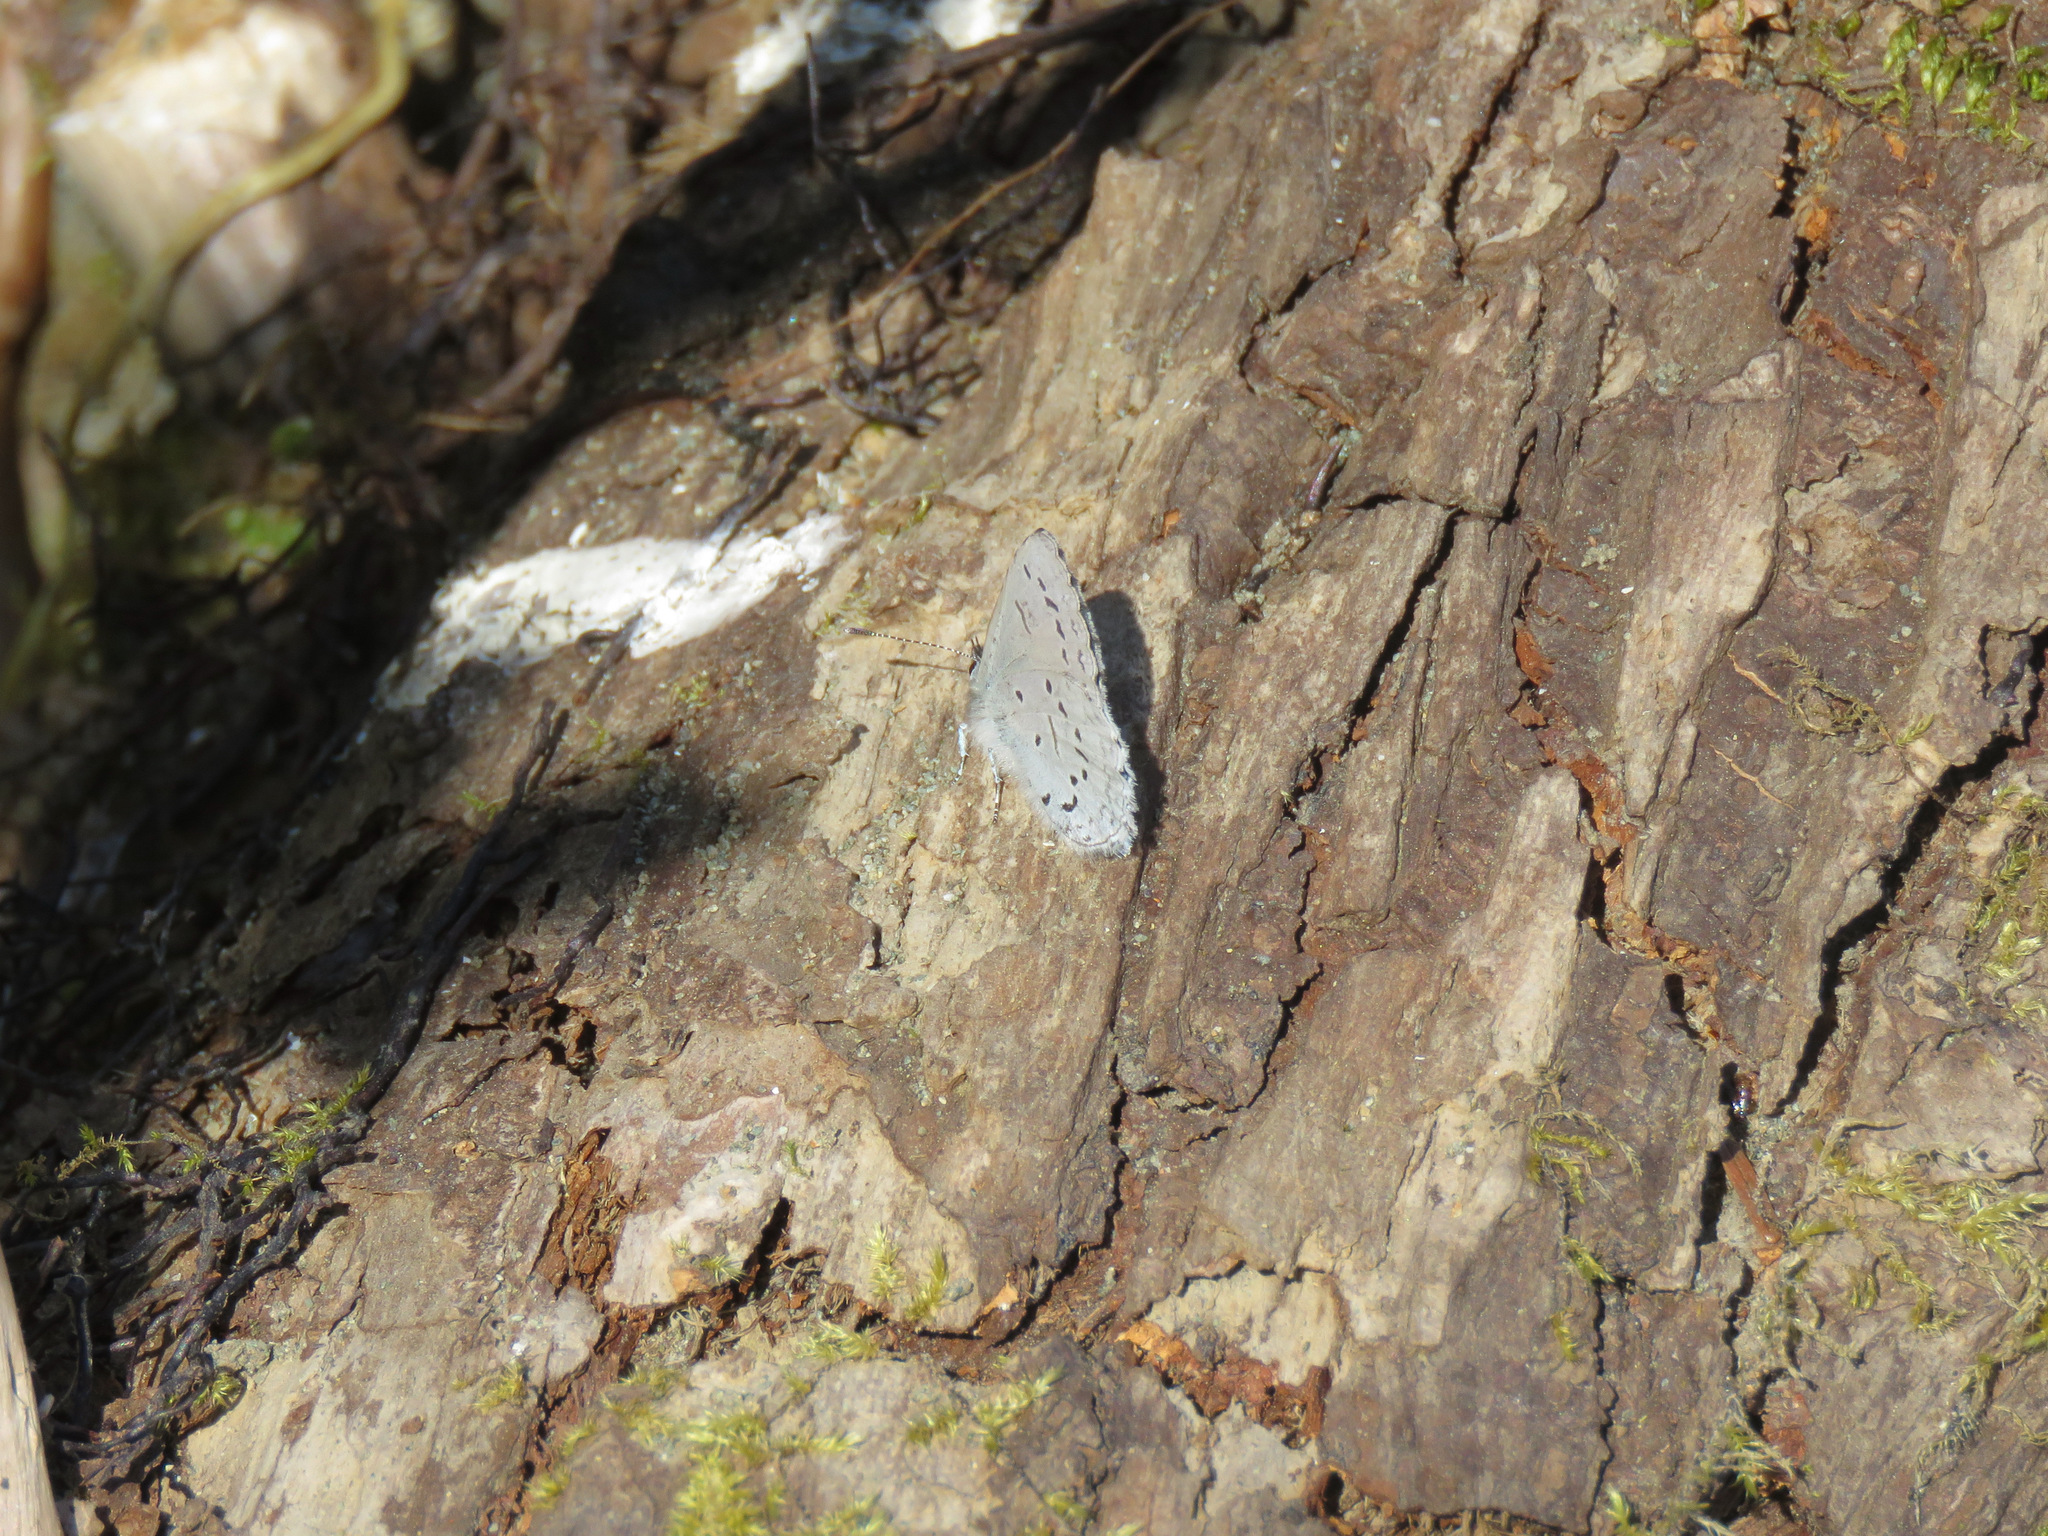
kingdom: Animalia
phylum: Arthropoda
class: Insecta
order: Lepidoptera
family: Lycaenidae
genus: Celastrina
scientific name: Celastrina ladon
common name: Spring azure
